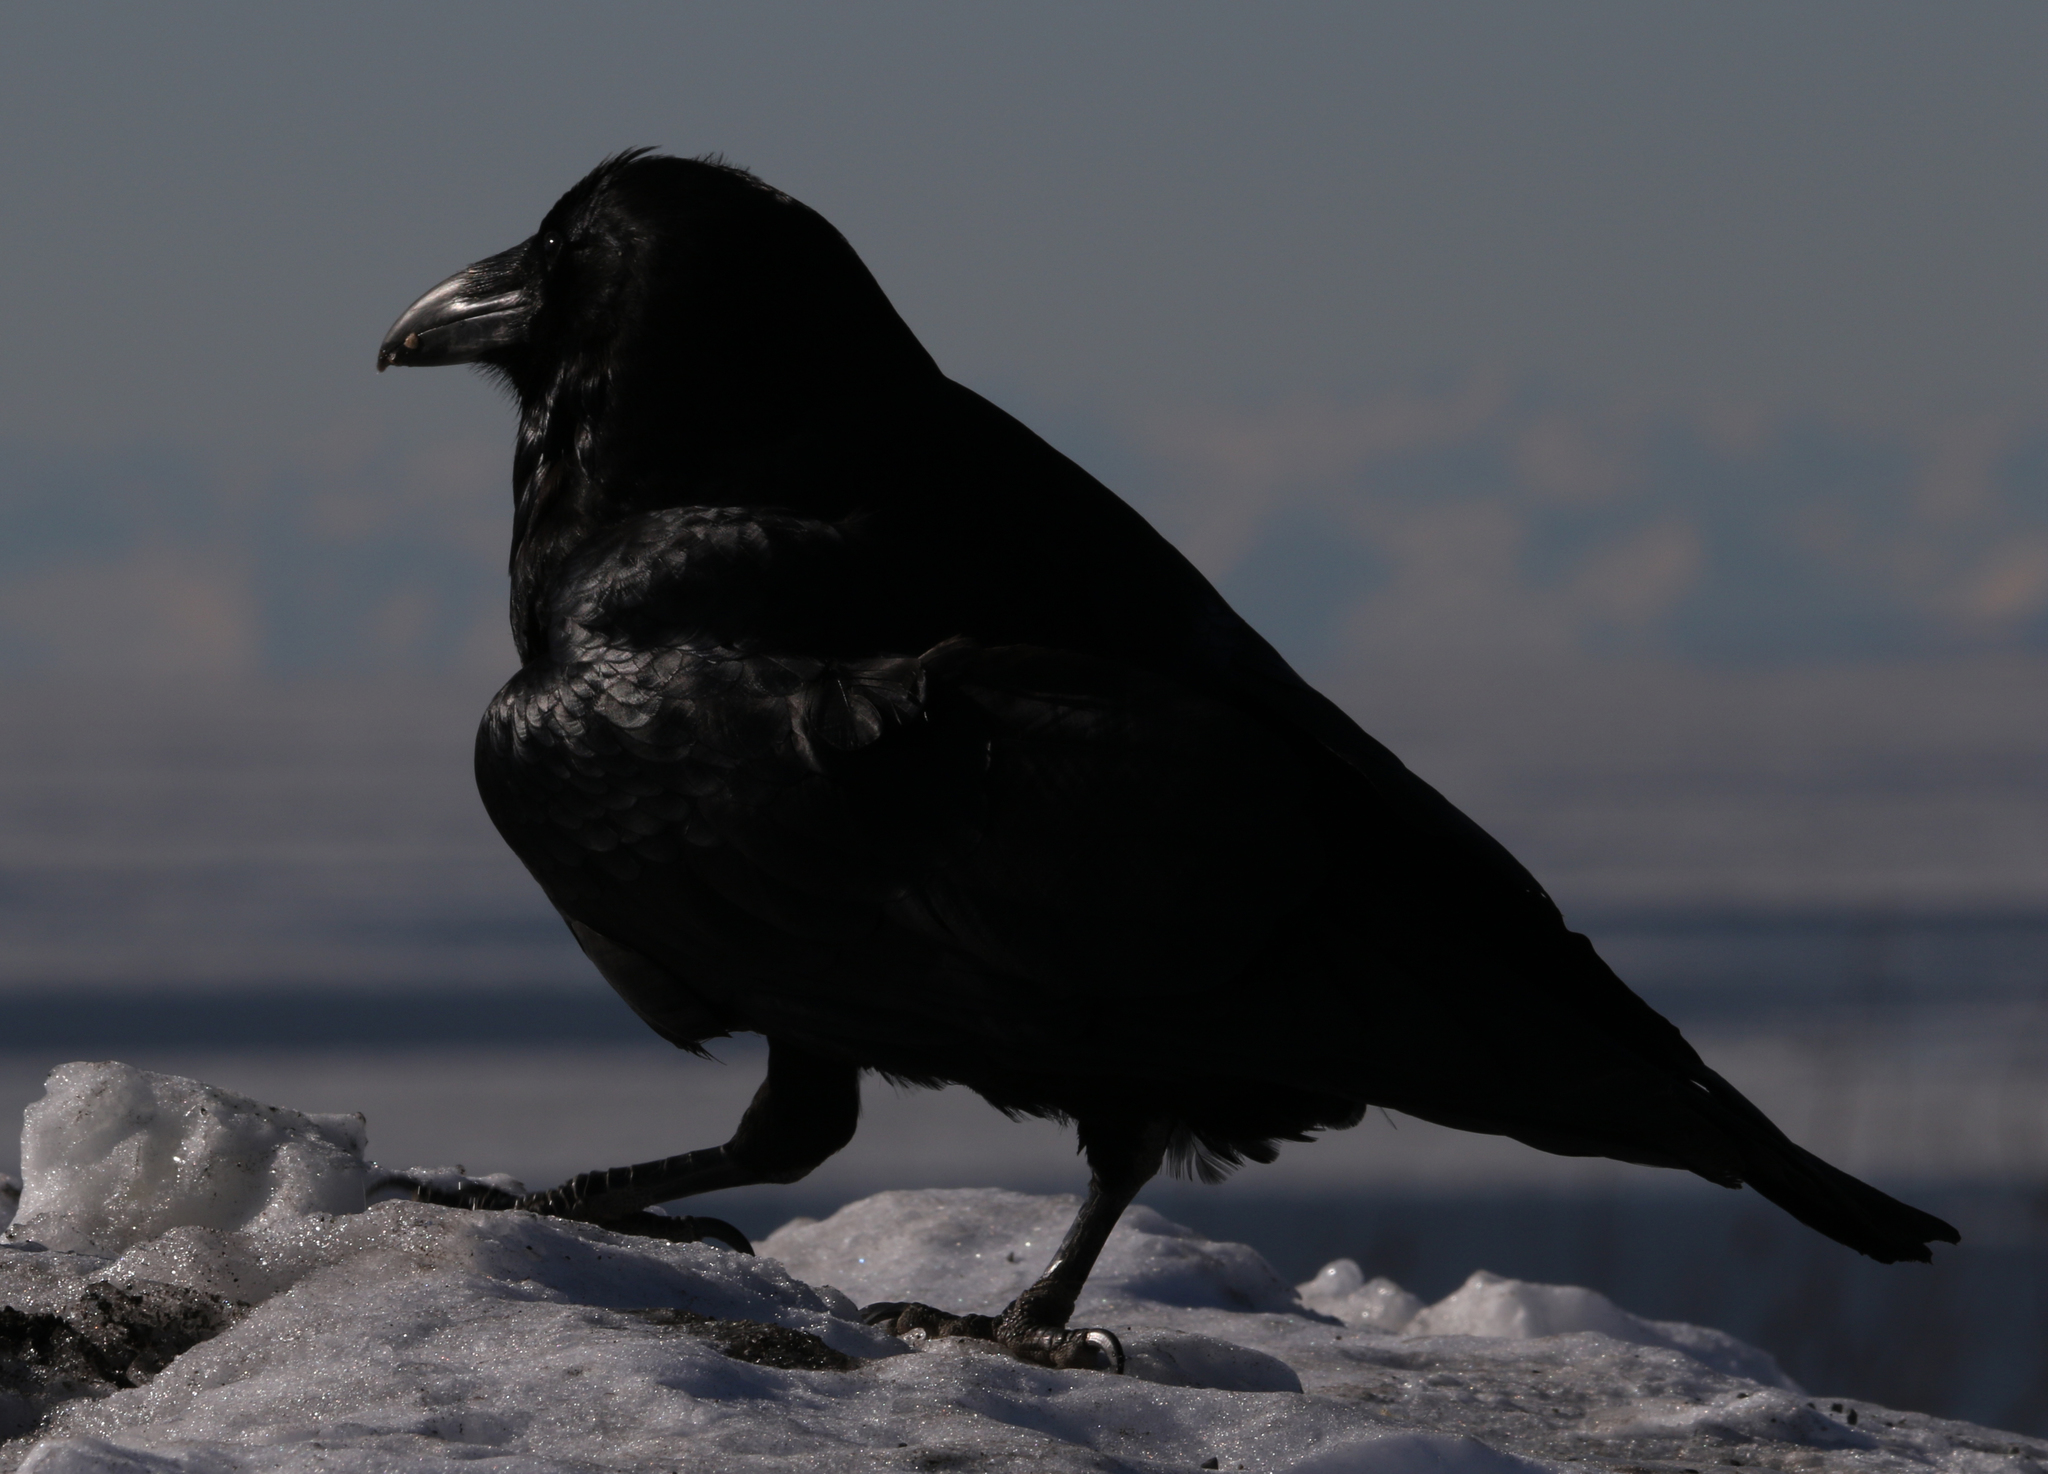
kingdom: Animalia
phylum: Chordata
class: Aves
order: Passeriformes
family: Corvidae
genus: Corvus
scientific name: Corvus corax
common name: Common raven
